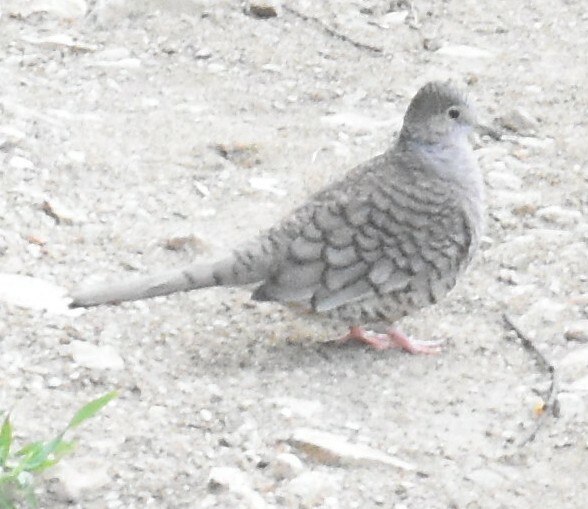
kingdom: Animalia
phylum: Chordata
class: Aves
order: Columbiformes
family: Columbidae
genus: Columbina
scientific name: Columbina inca
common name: Inca dove
